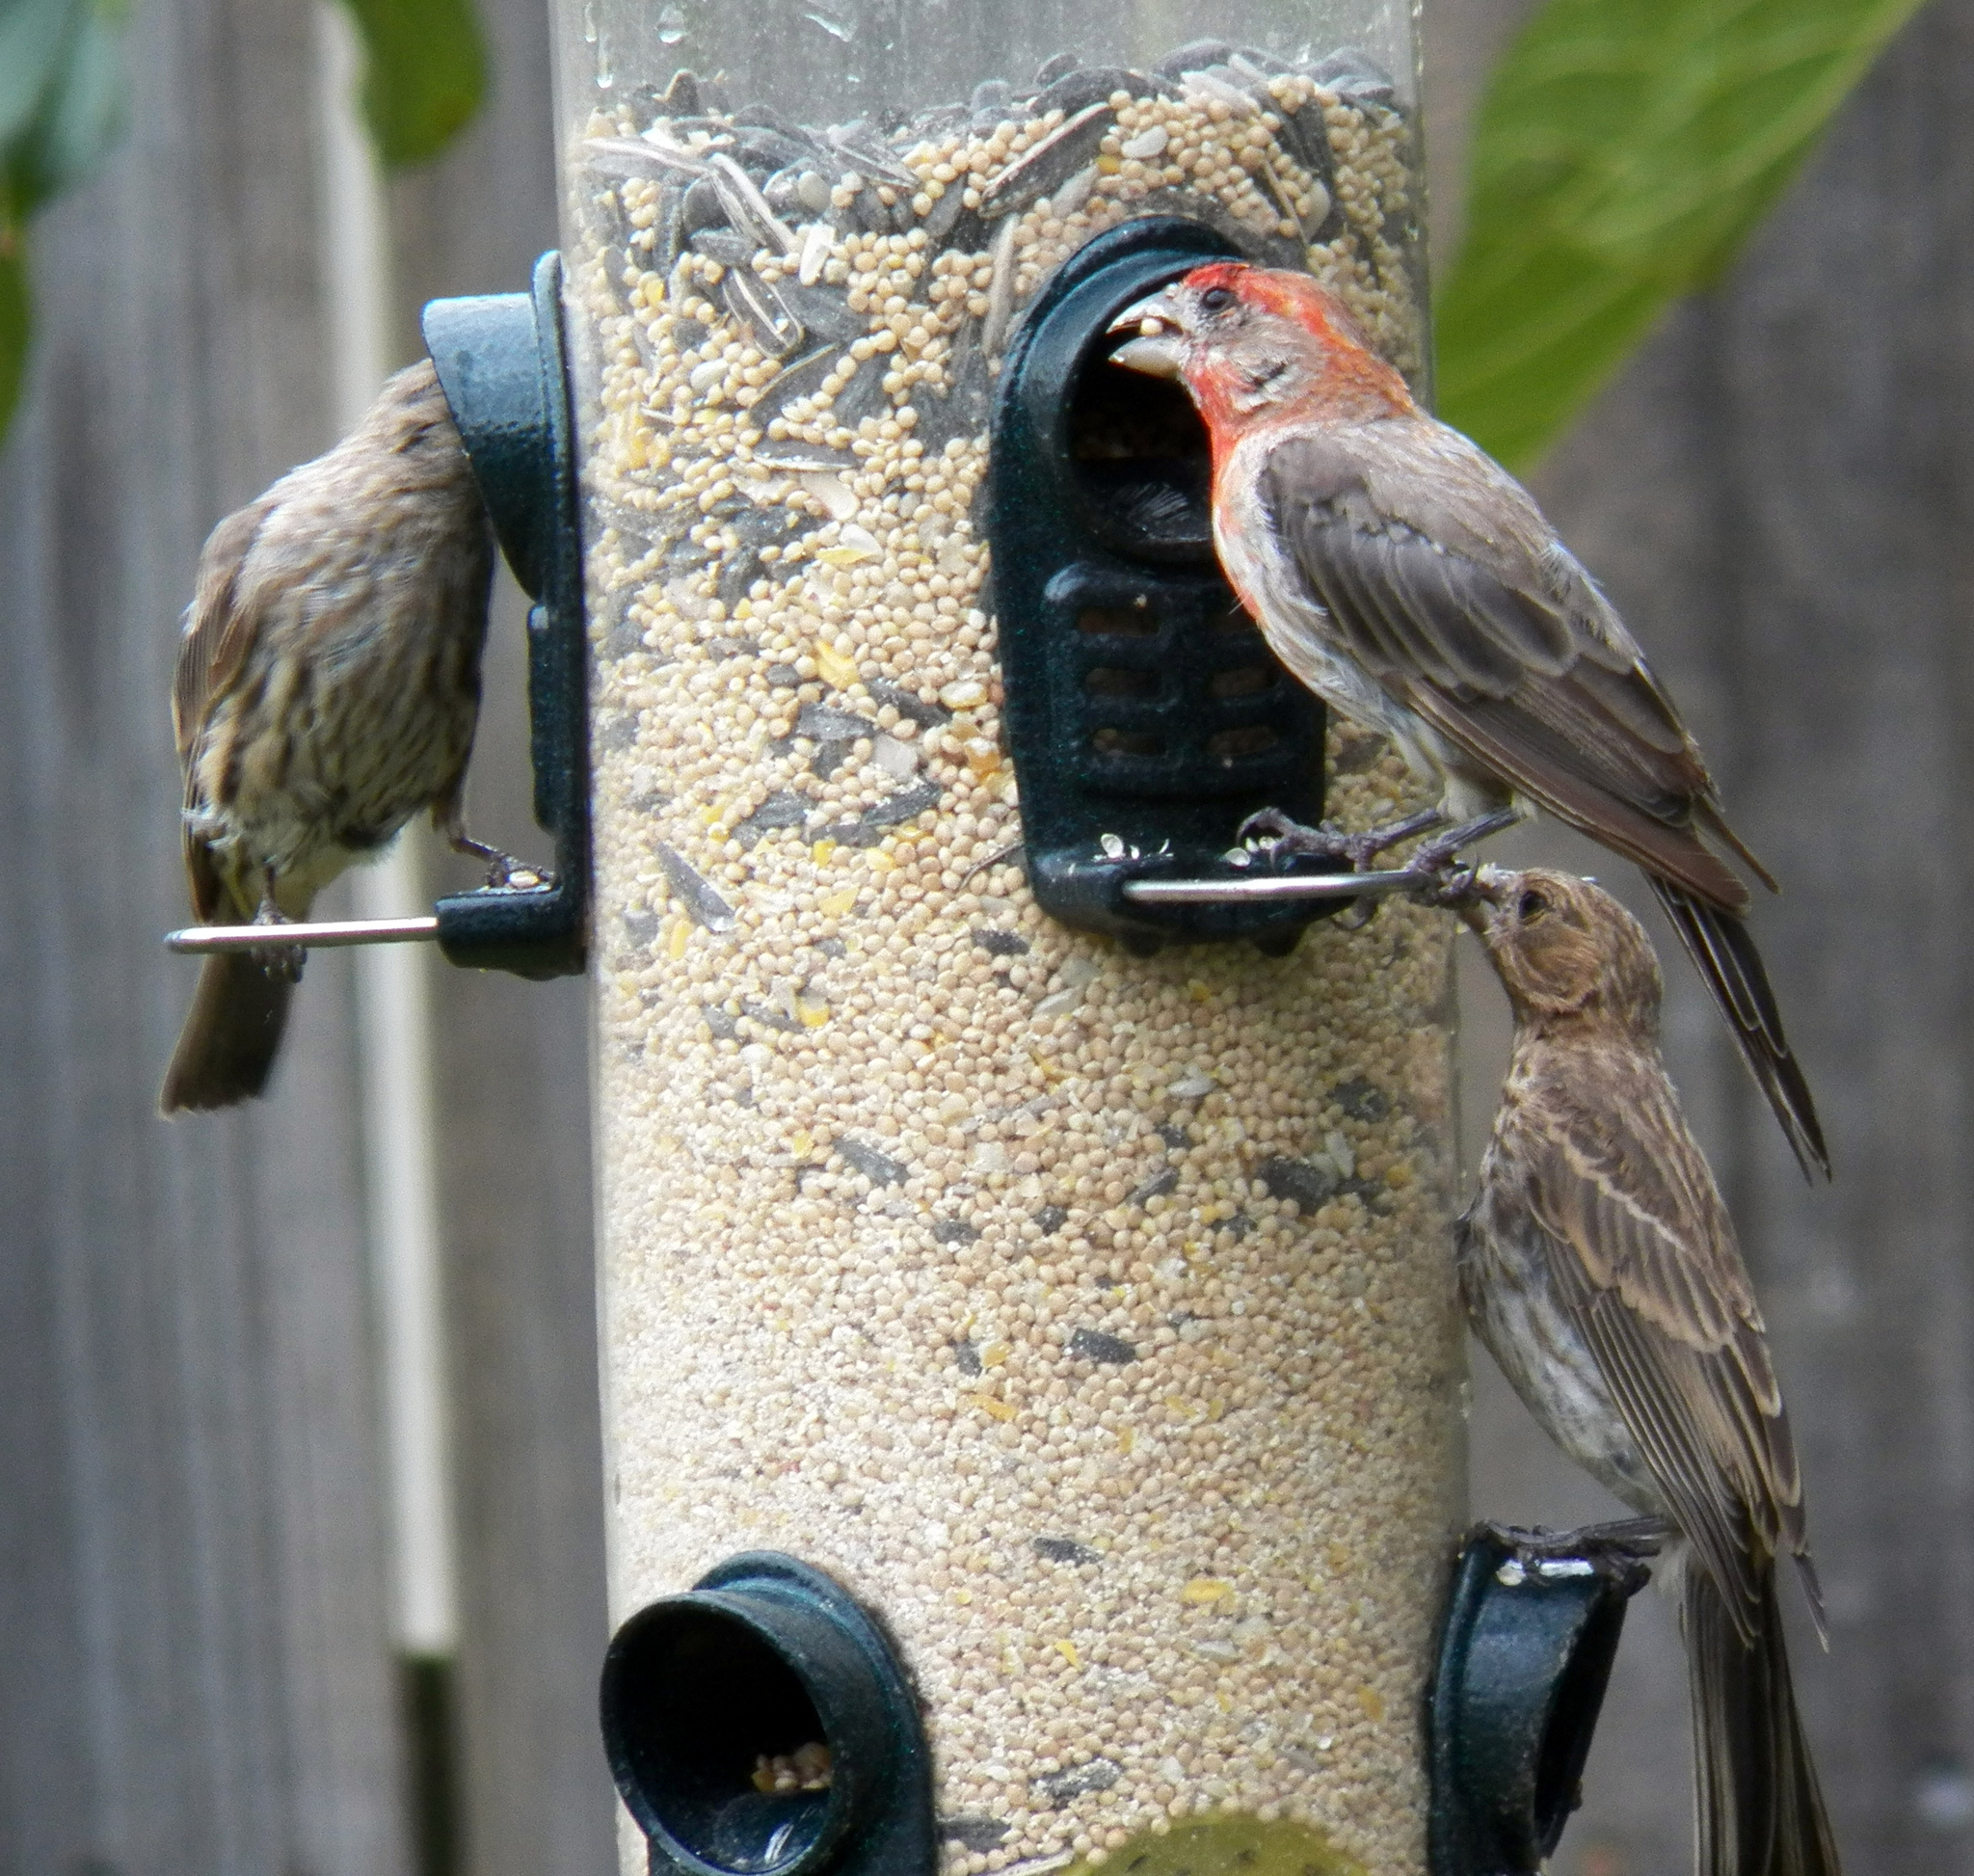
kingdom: Animalia
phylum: Chordata
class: Aves
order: Passeriformes
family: Fringillidae
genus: Haemorhous
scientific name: Haemorhous mexicanus
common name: House finch
